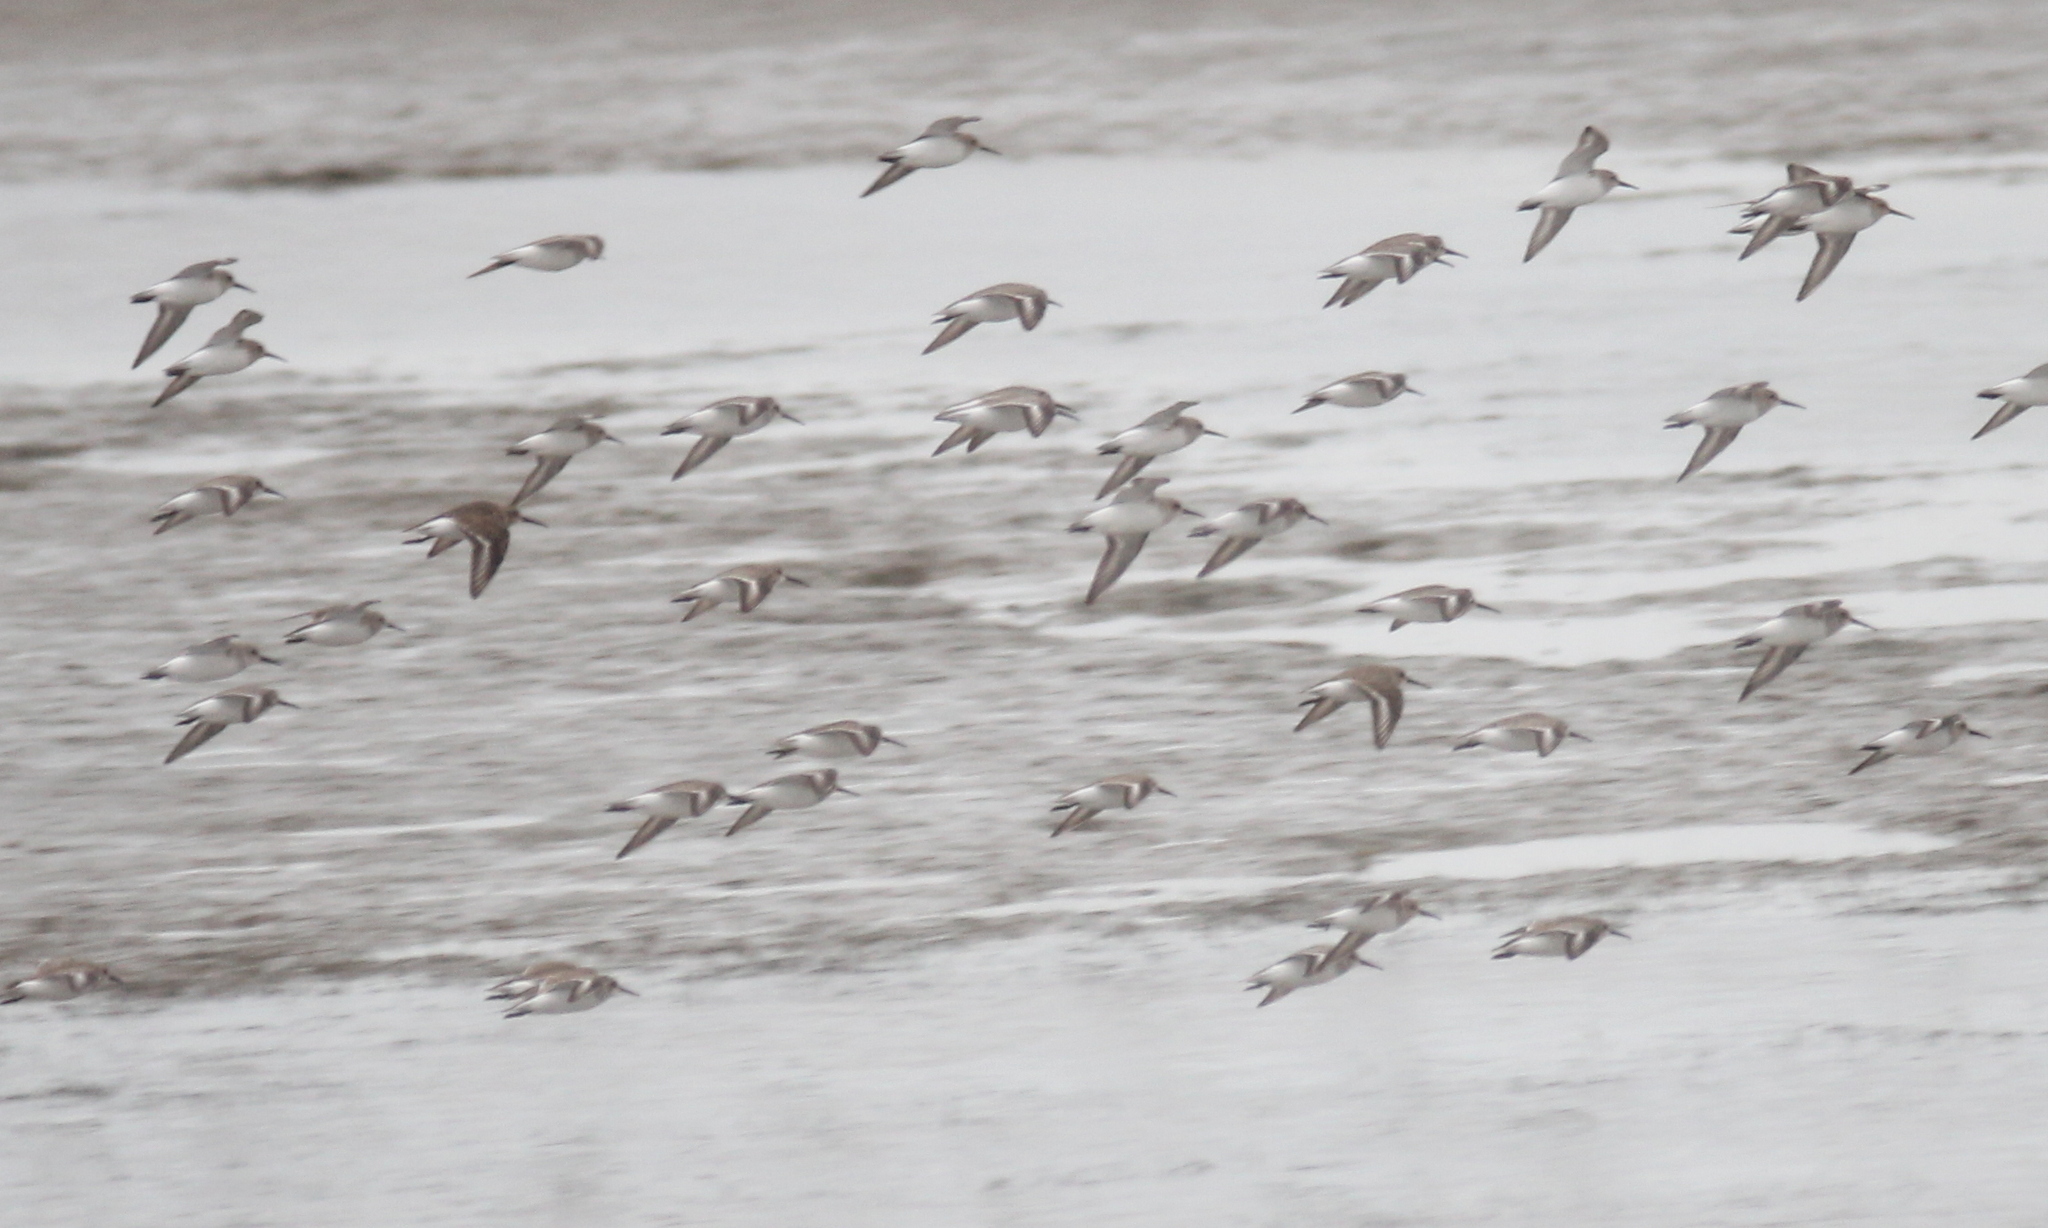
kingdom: Animalia
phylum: Chordata
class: Aves
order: Charadriiformes
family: Scolopacidae
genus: Calidris
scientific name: Calidris alpina
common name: Dunlin
